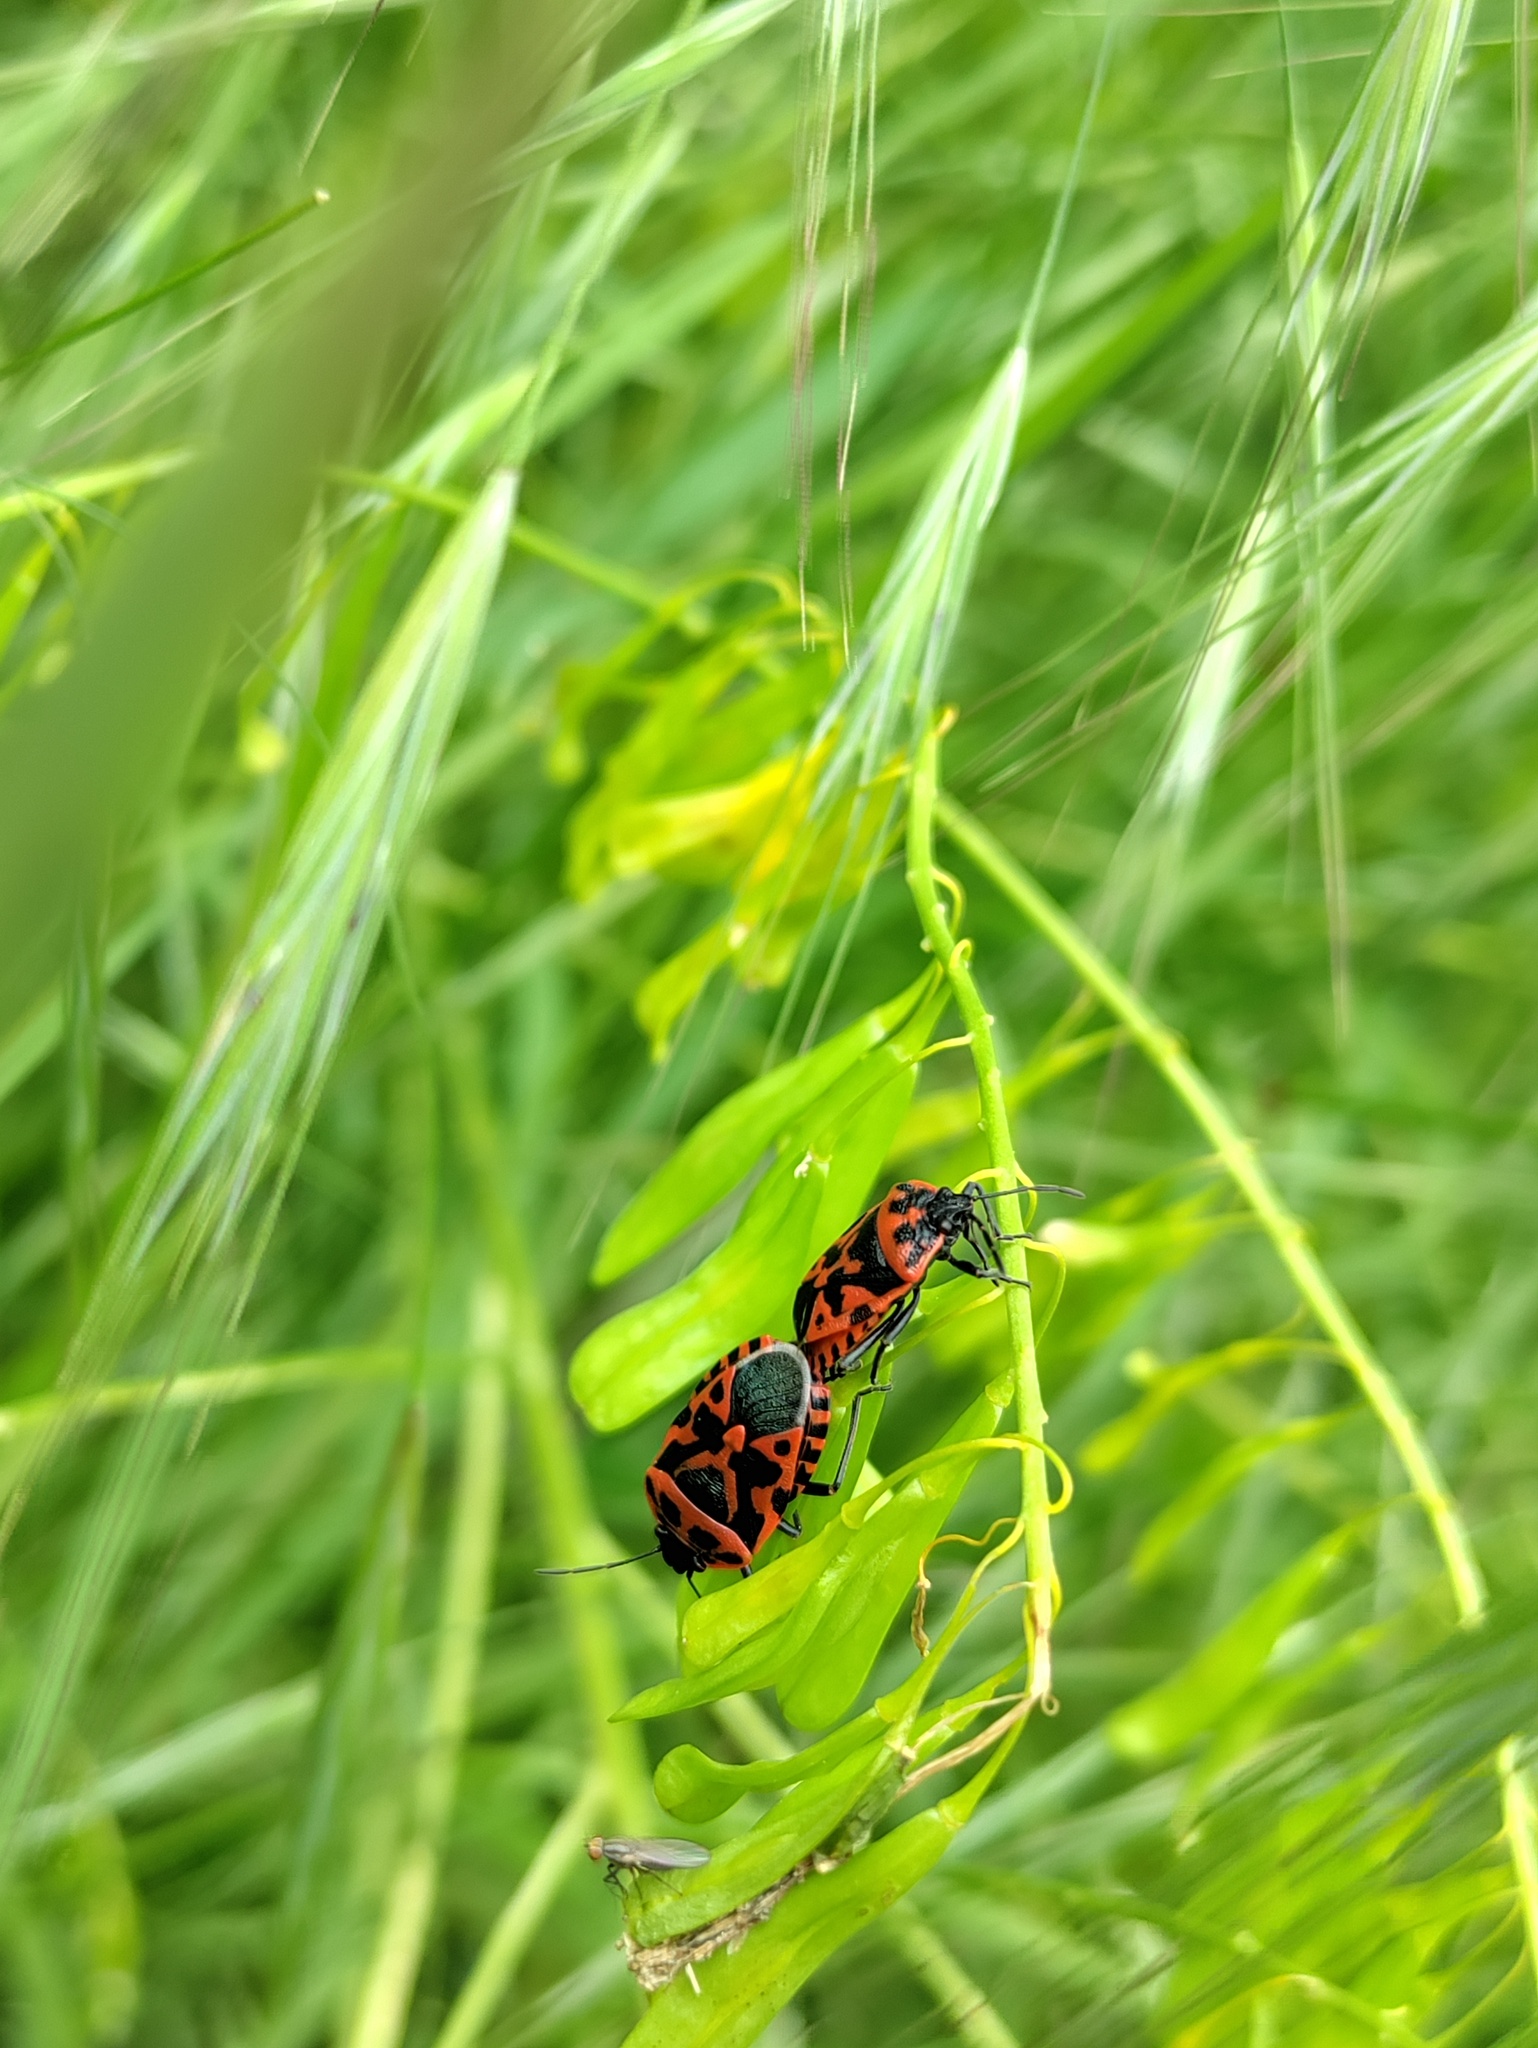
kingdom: Animalia
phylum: Arthropoda
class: Insecta
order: Hemiptera
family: Pentatomidae
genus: Eurydema
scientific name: Eurydema ventralis
